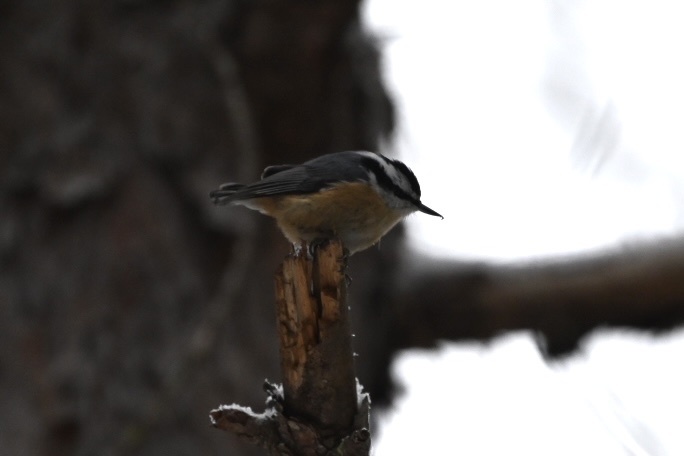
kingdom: Animalia
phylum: Chordata
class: Aves
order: Passeriformes
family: Sittidae
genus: Sitta
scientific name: Sitta canadensis
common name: Red-breasted nuthatch
